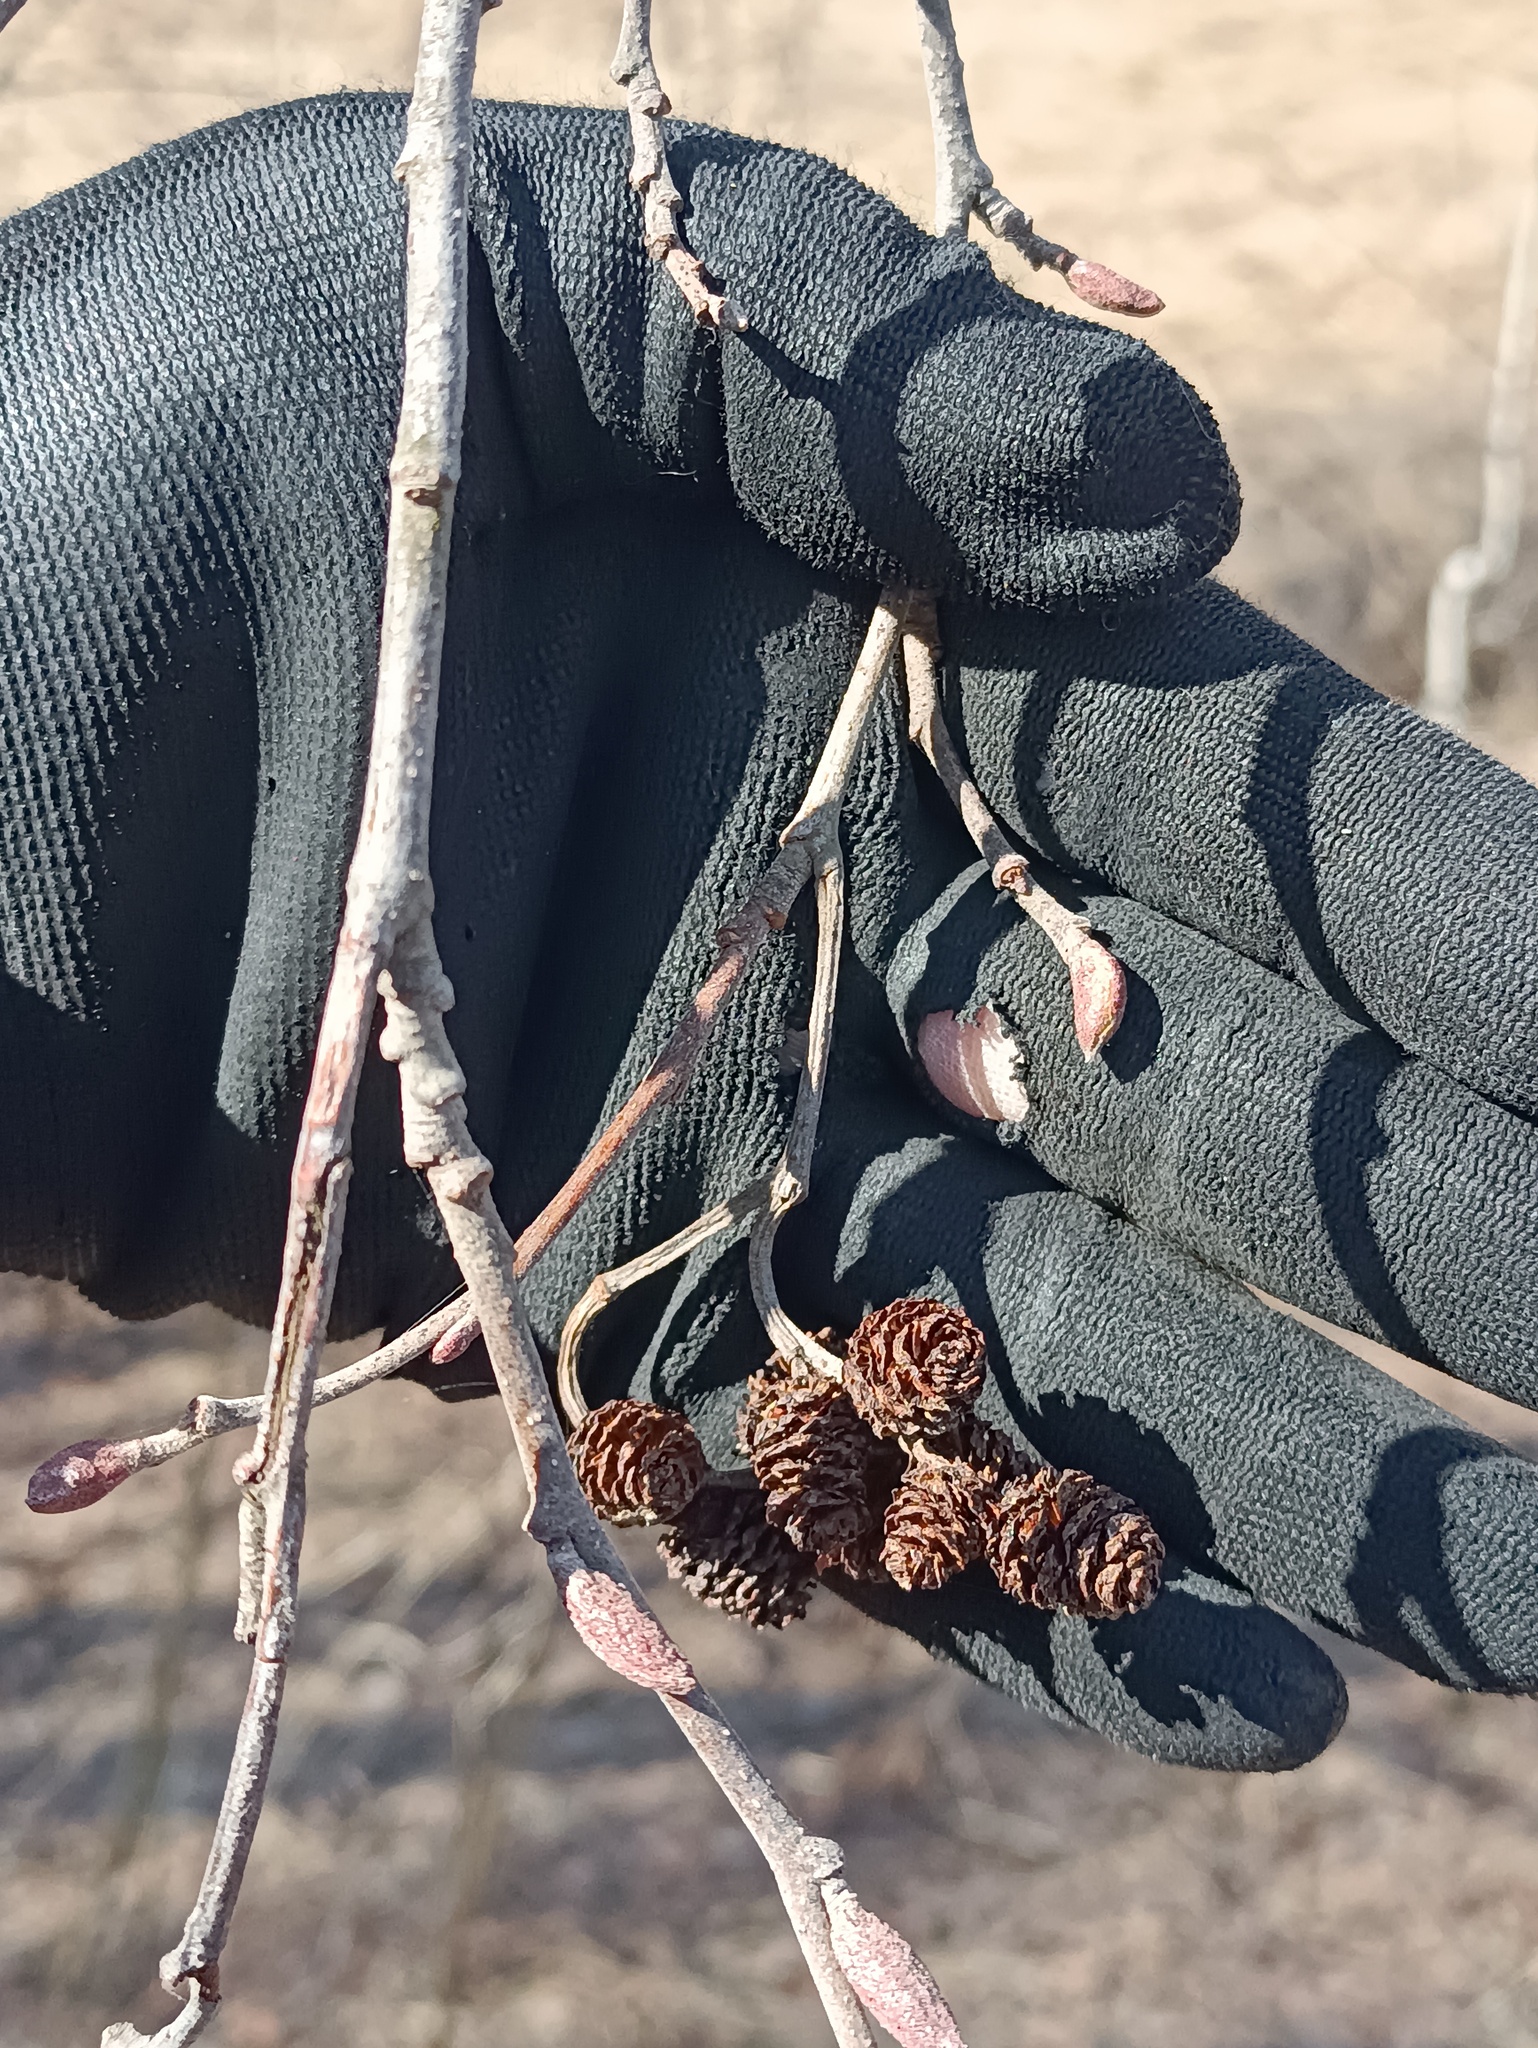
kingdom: Plantae
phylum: Tracheophyta
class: Magnoliopsida
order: Fagales
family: Betulaceae
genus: Alnus
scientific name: Alnus incana
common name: Grey alder
